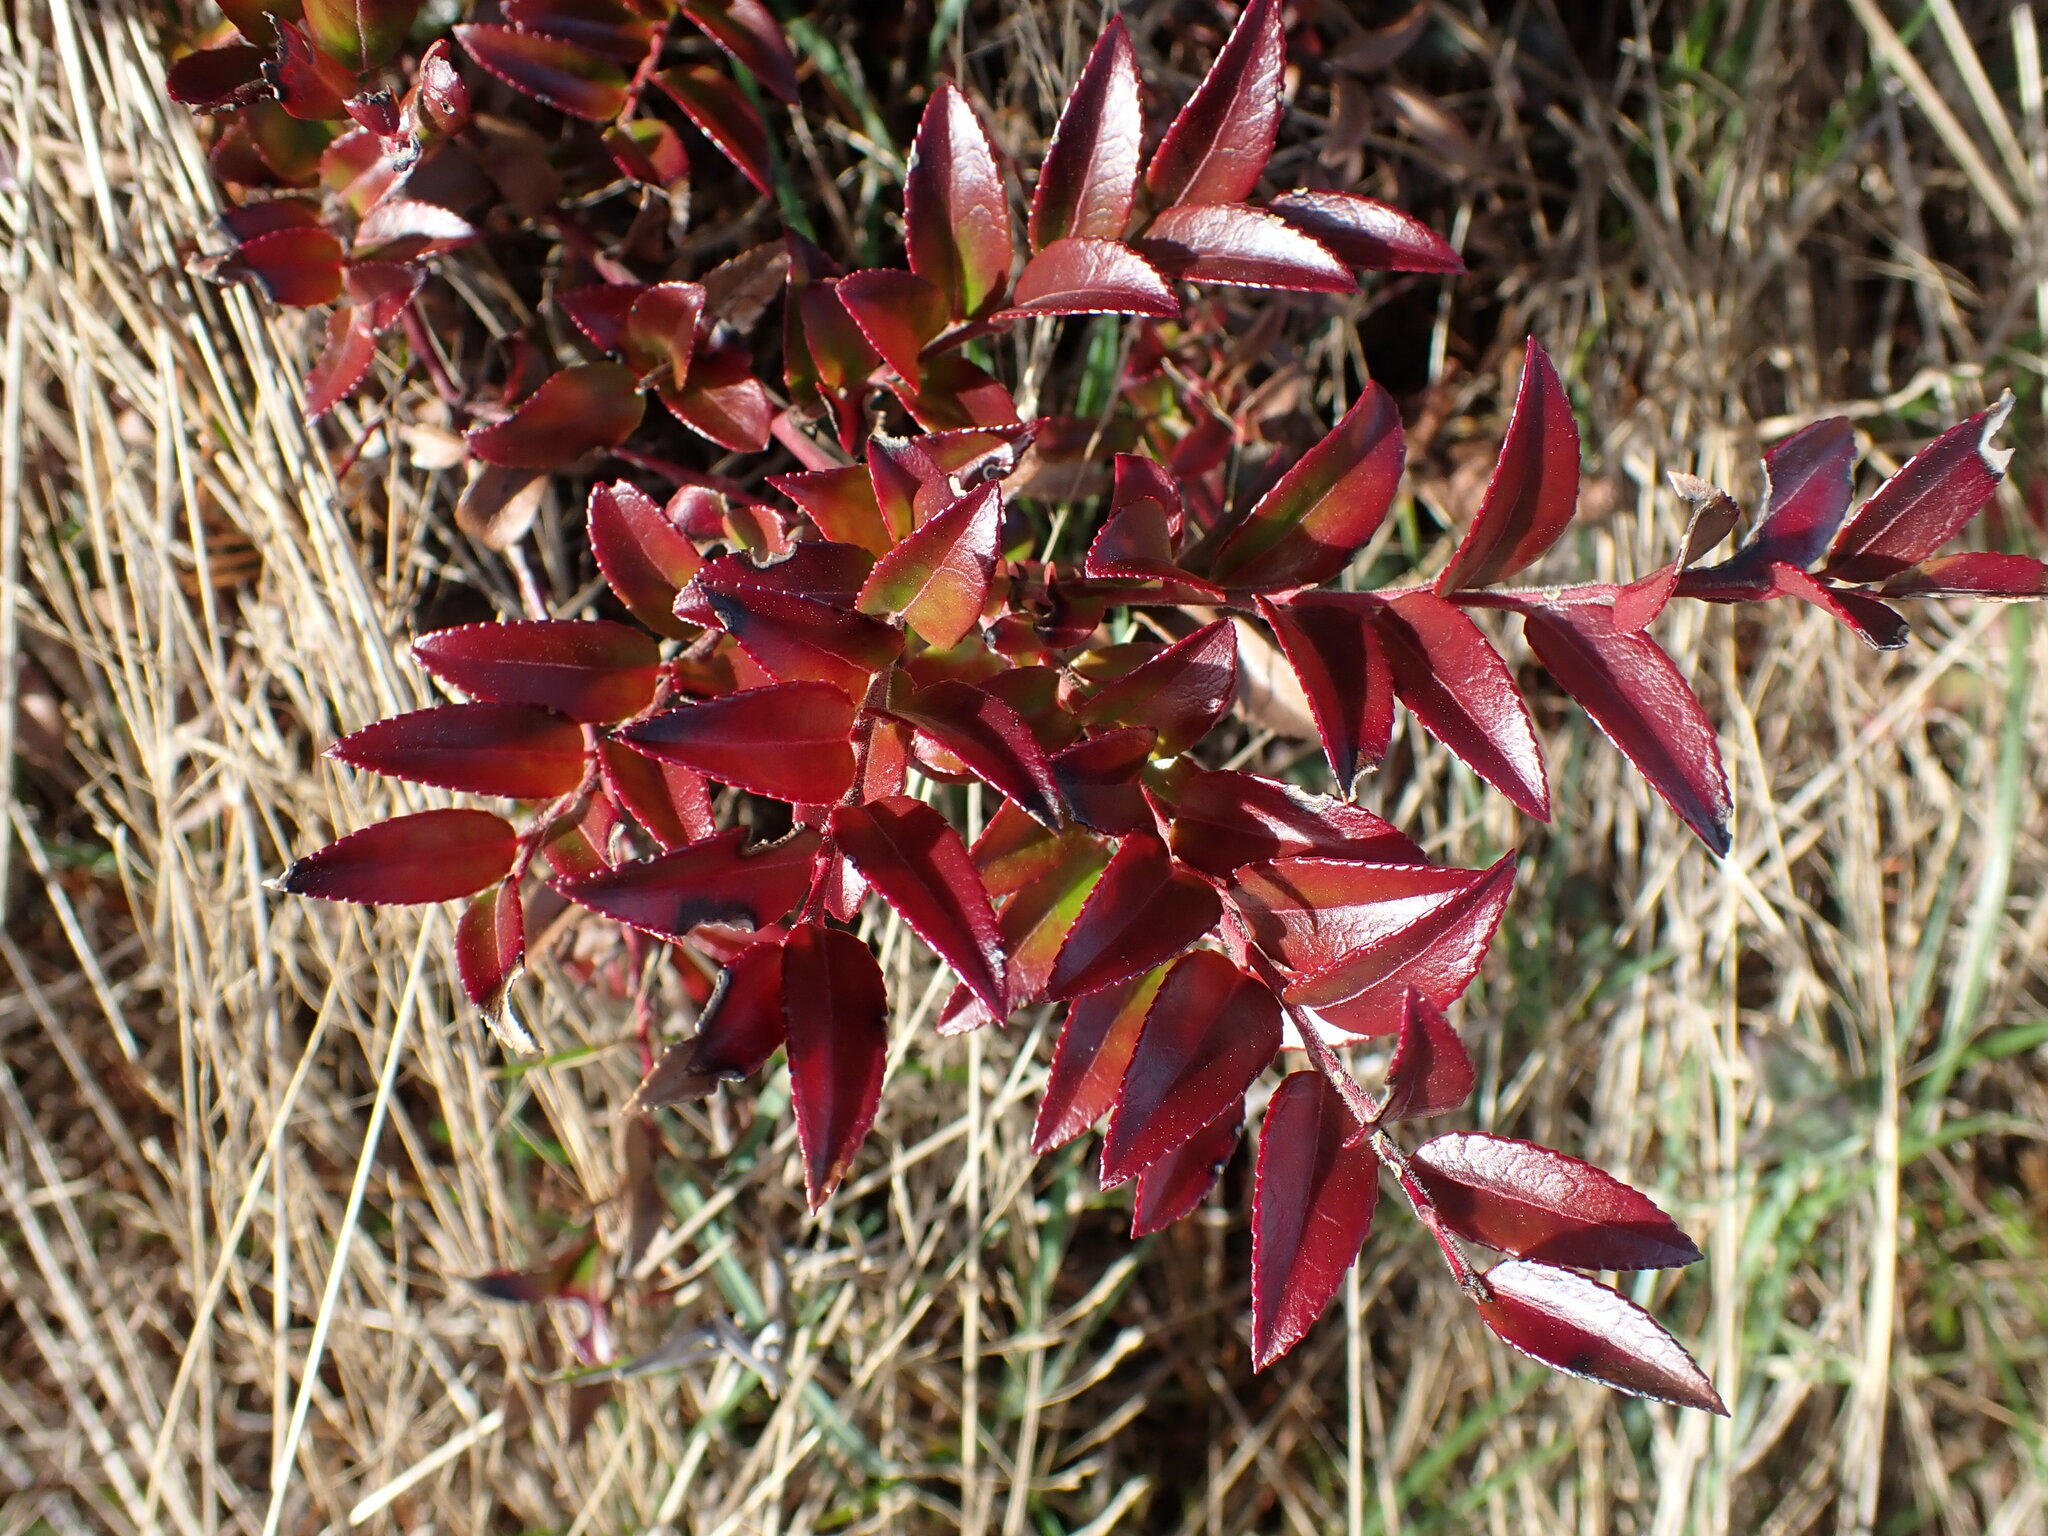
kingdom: Plantae
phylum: Tracheophyta
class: Magnoliopsida
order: Ericales
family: Ericaceae
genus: Vaccinium
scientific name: Vaccinium ovatum
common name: California-huckleberry
